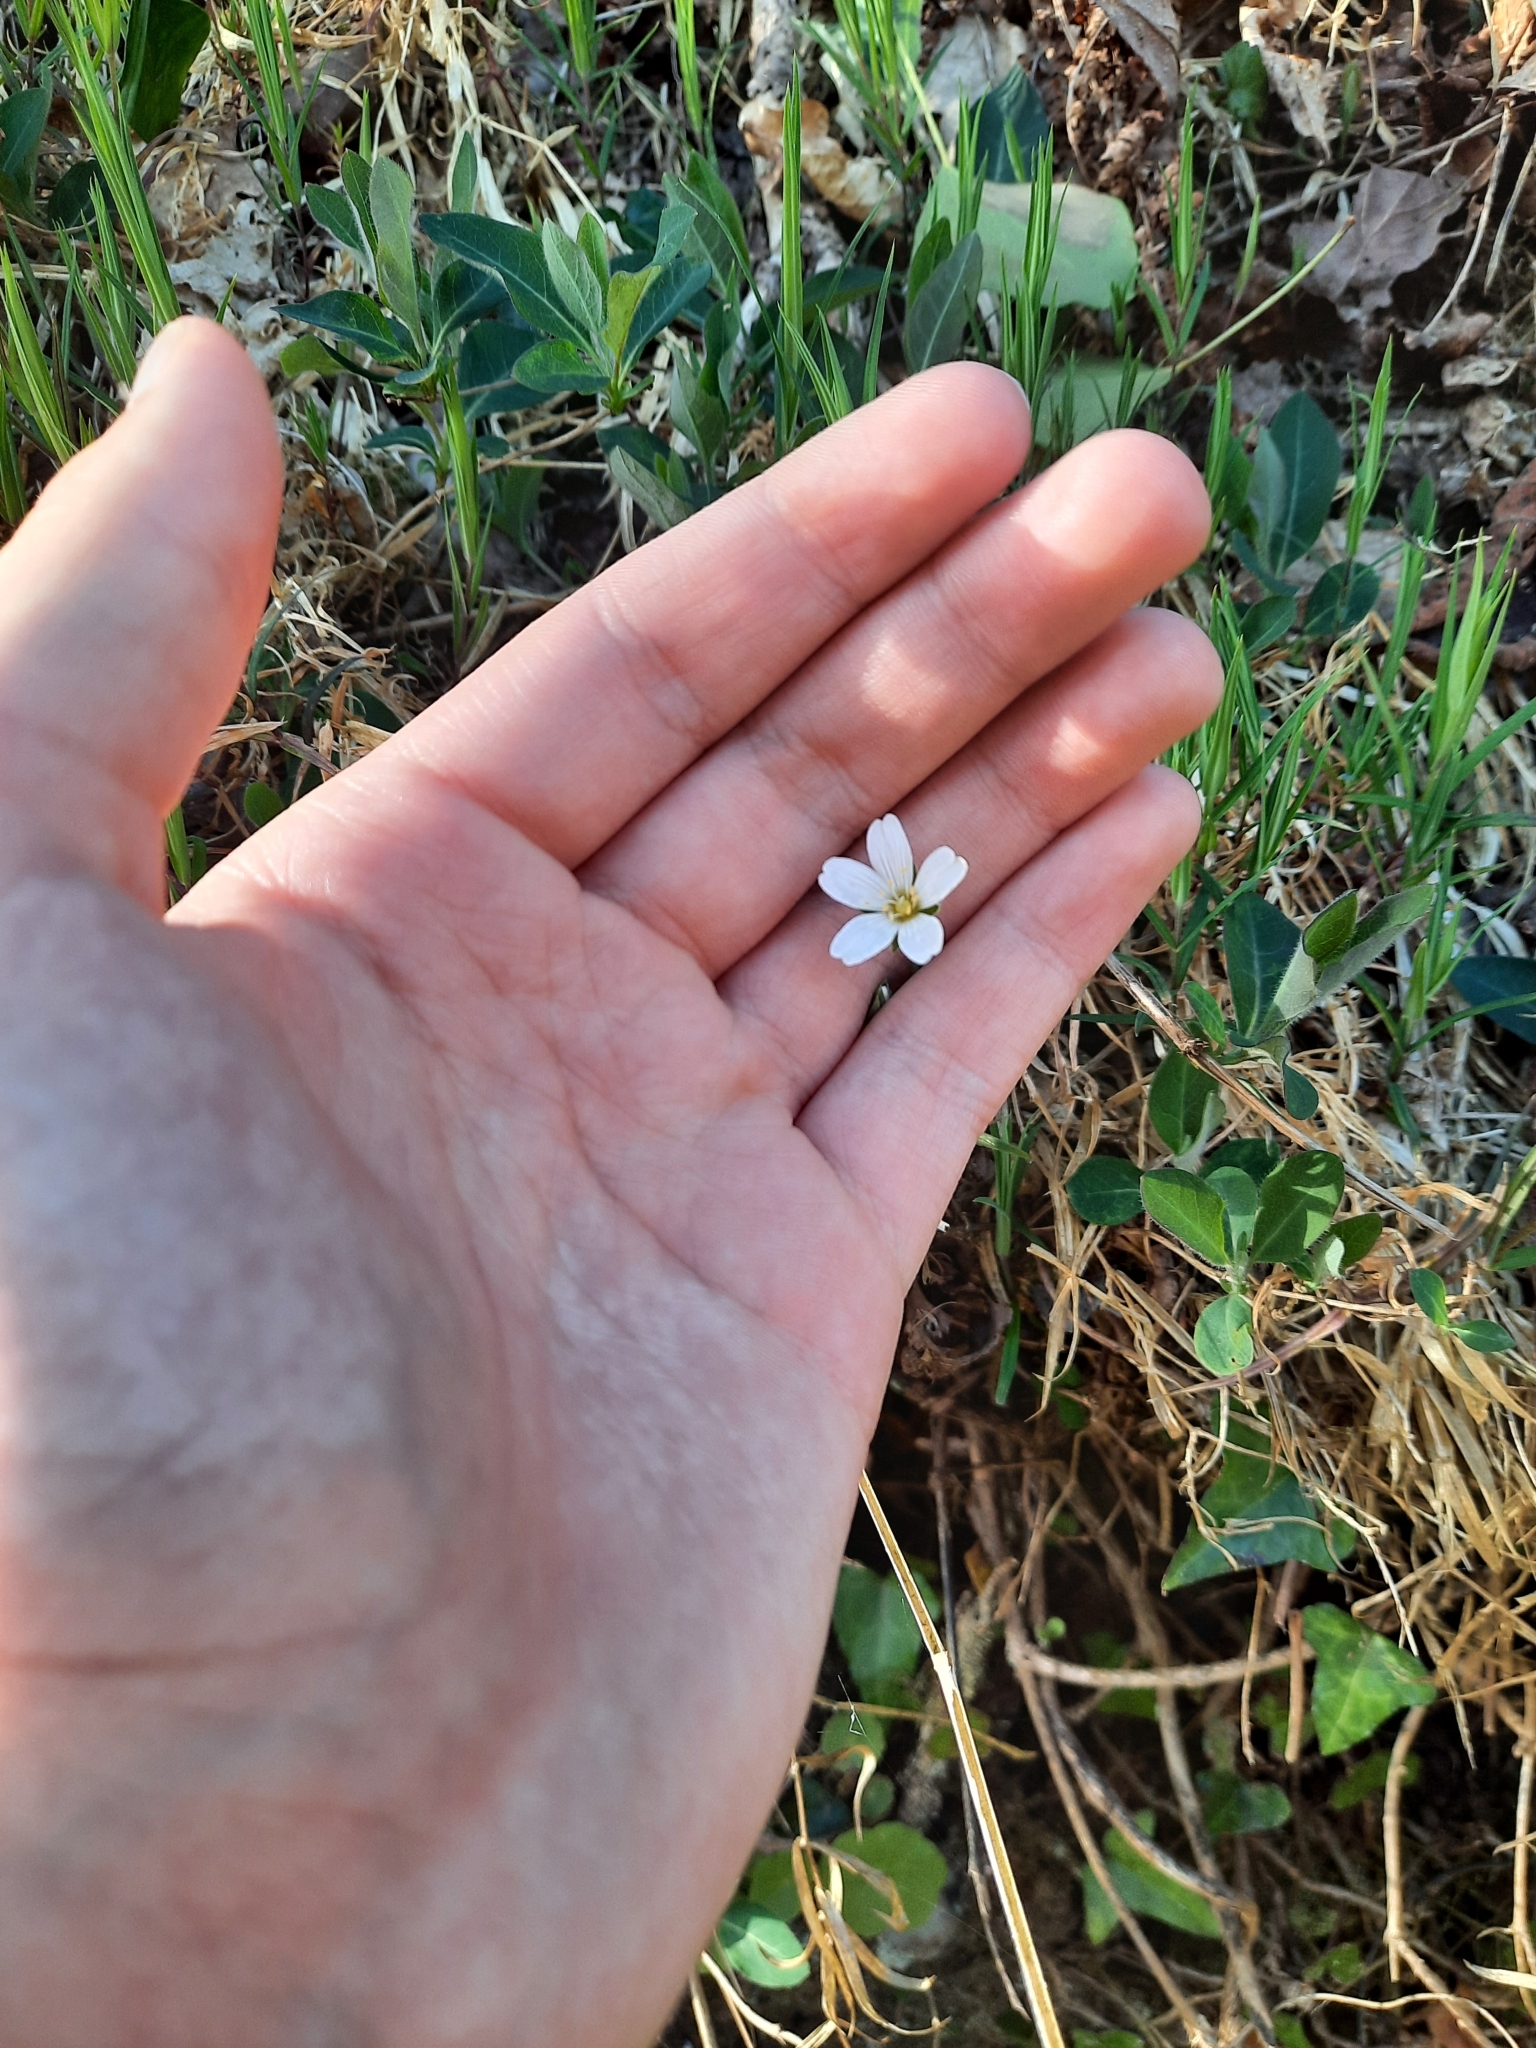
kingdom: Plantae
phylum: Tracheophyta
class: Magnoliopsida
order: Caryophyllales
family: Caryophyllaceae
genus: Rabelera
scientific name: Rabelera holostea
